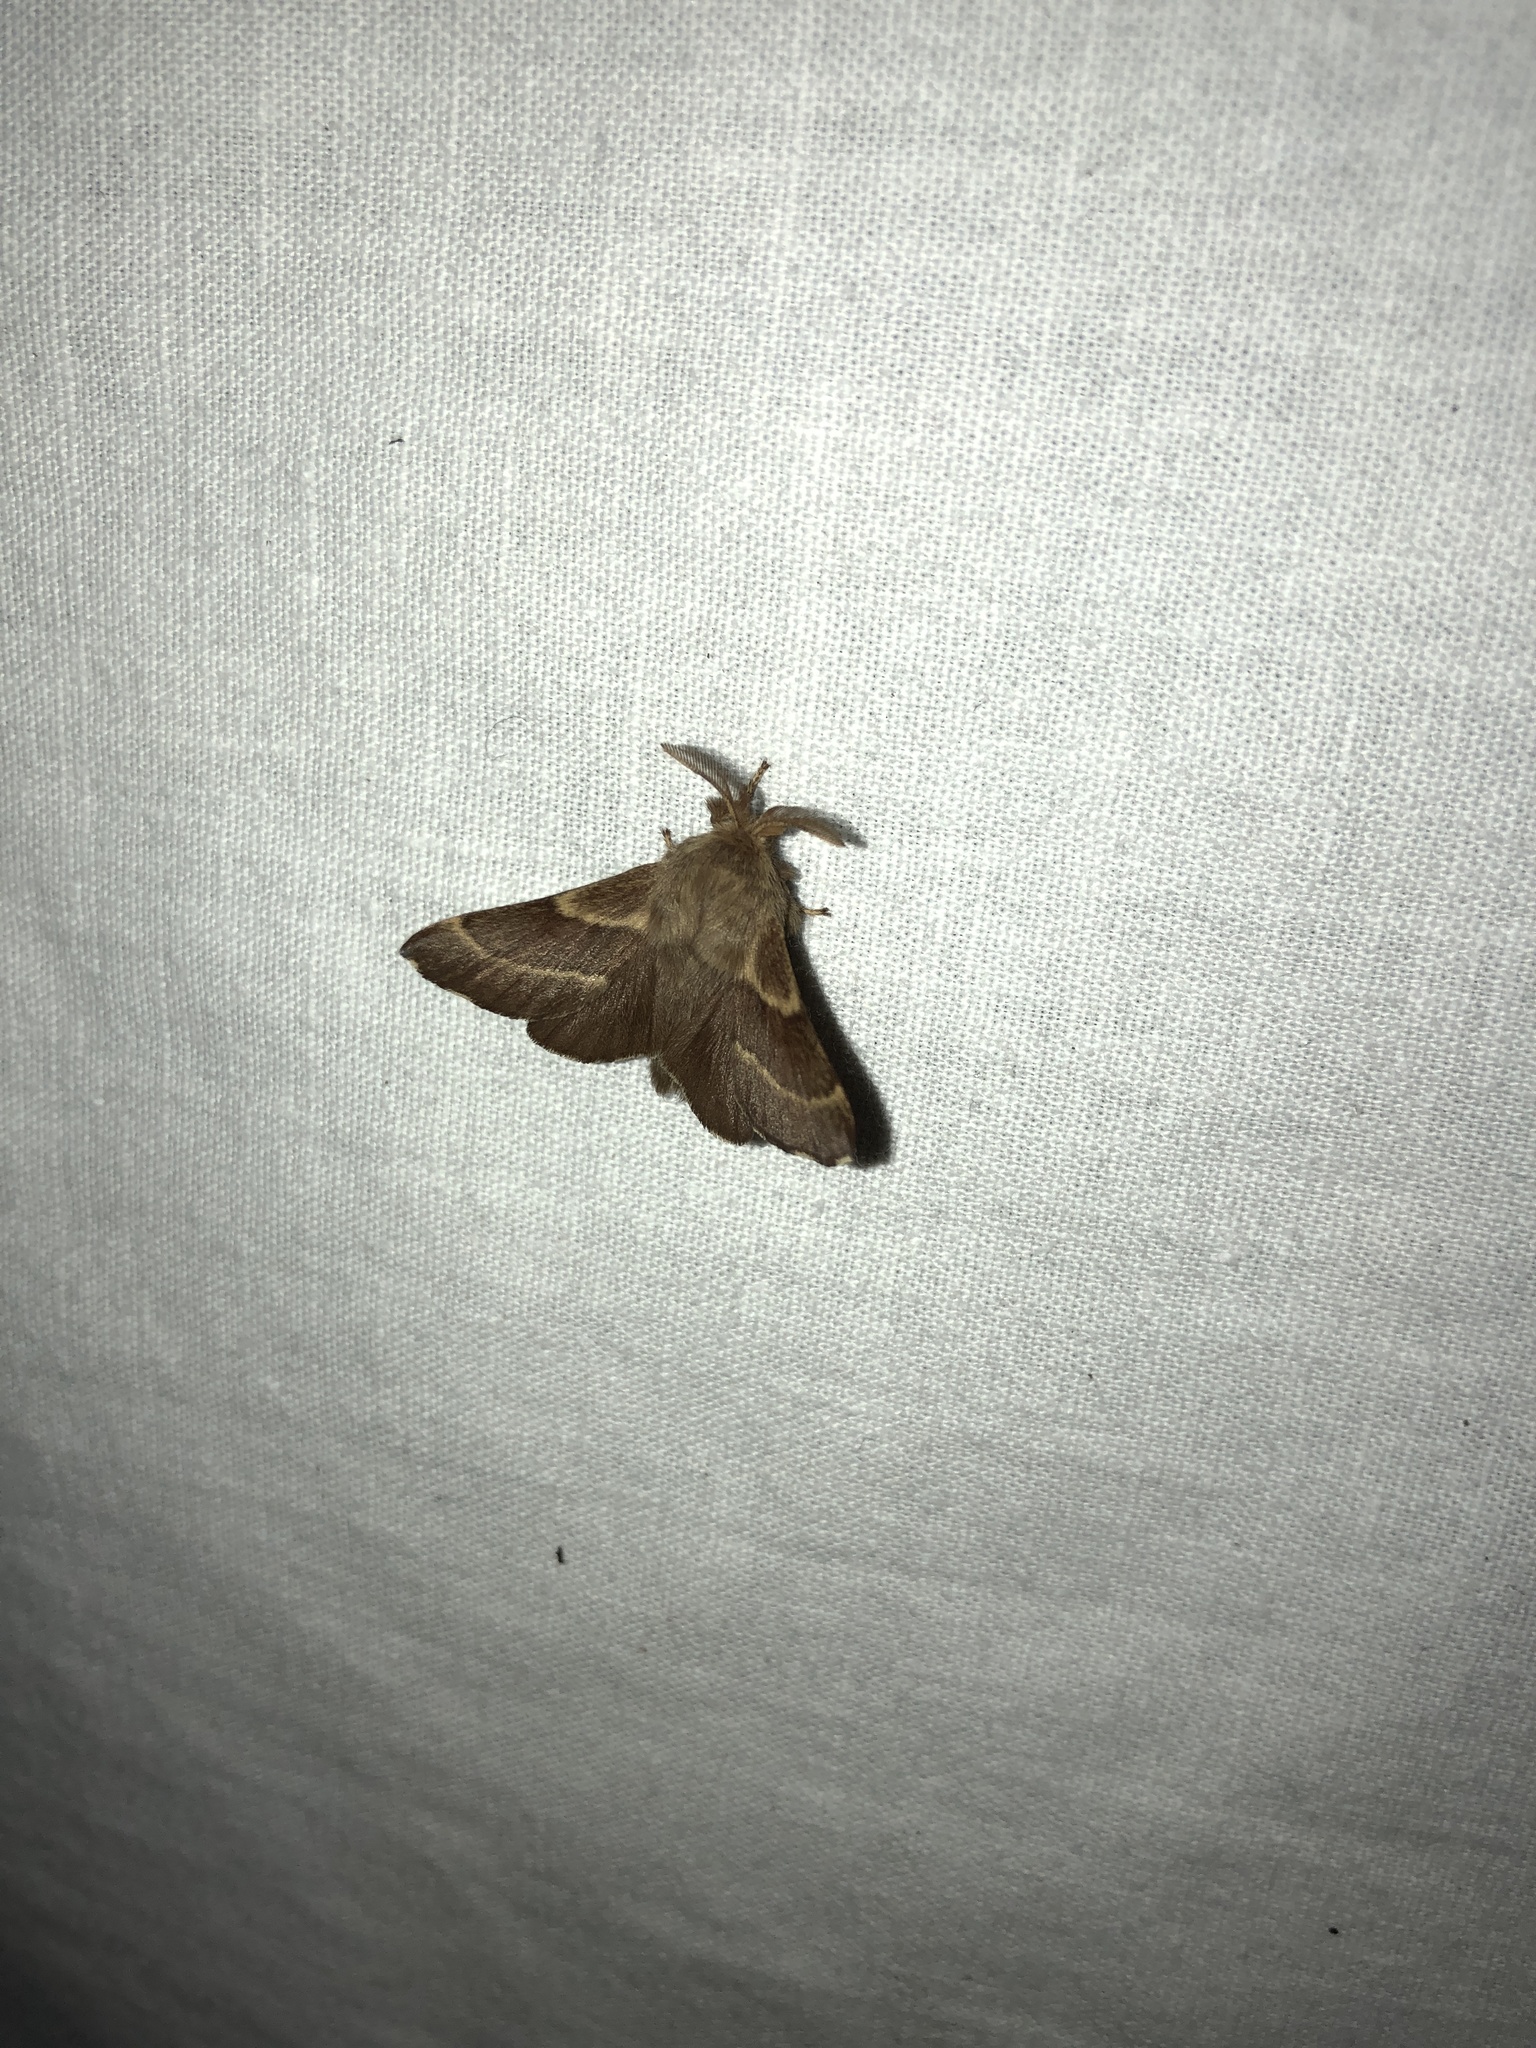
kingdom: Animalia
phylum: Arthropoda
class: Insecta
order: Lepidoptera
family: Lasiocampidae
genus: Malacosoma
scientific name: Malacosoma californica
